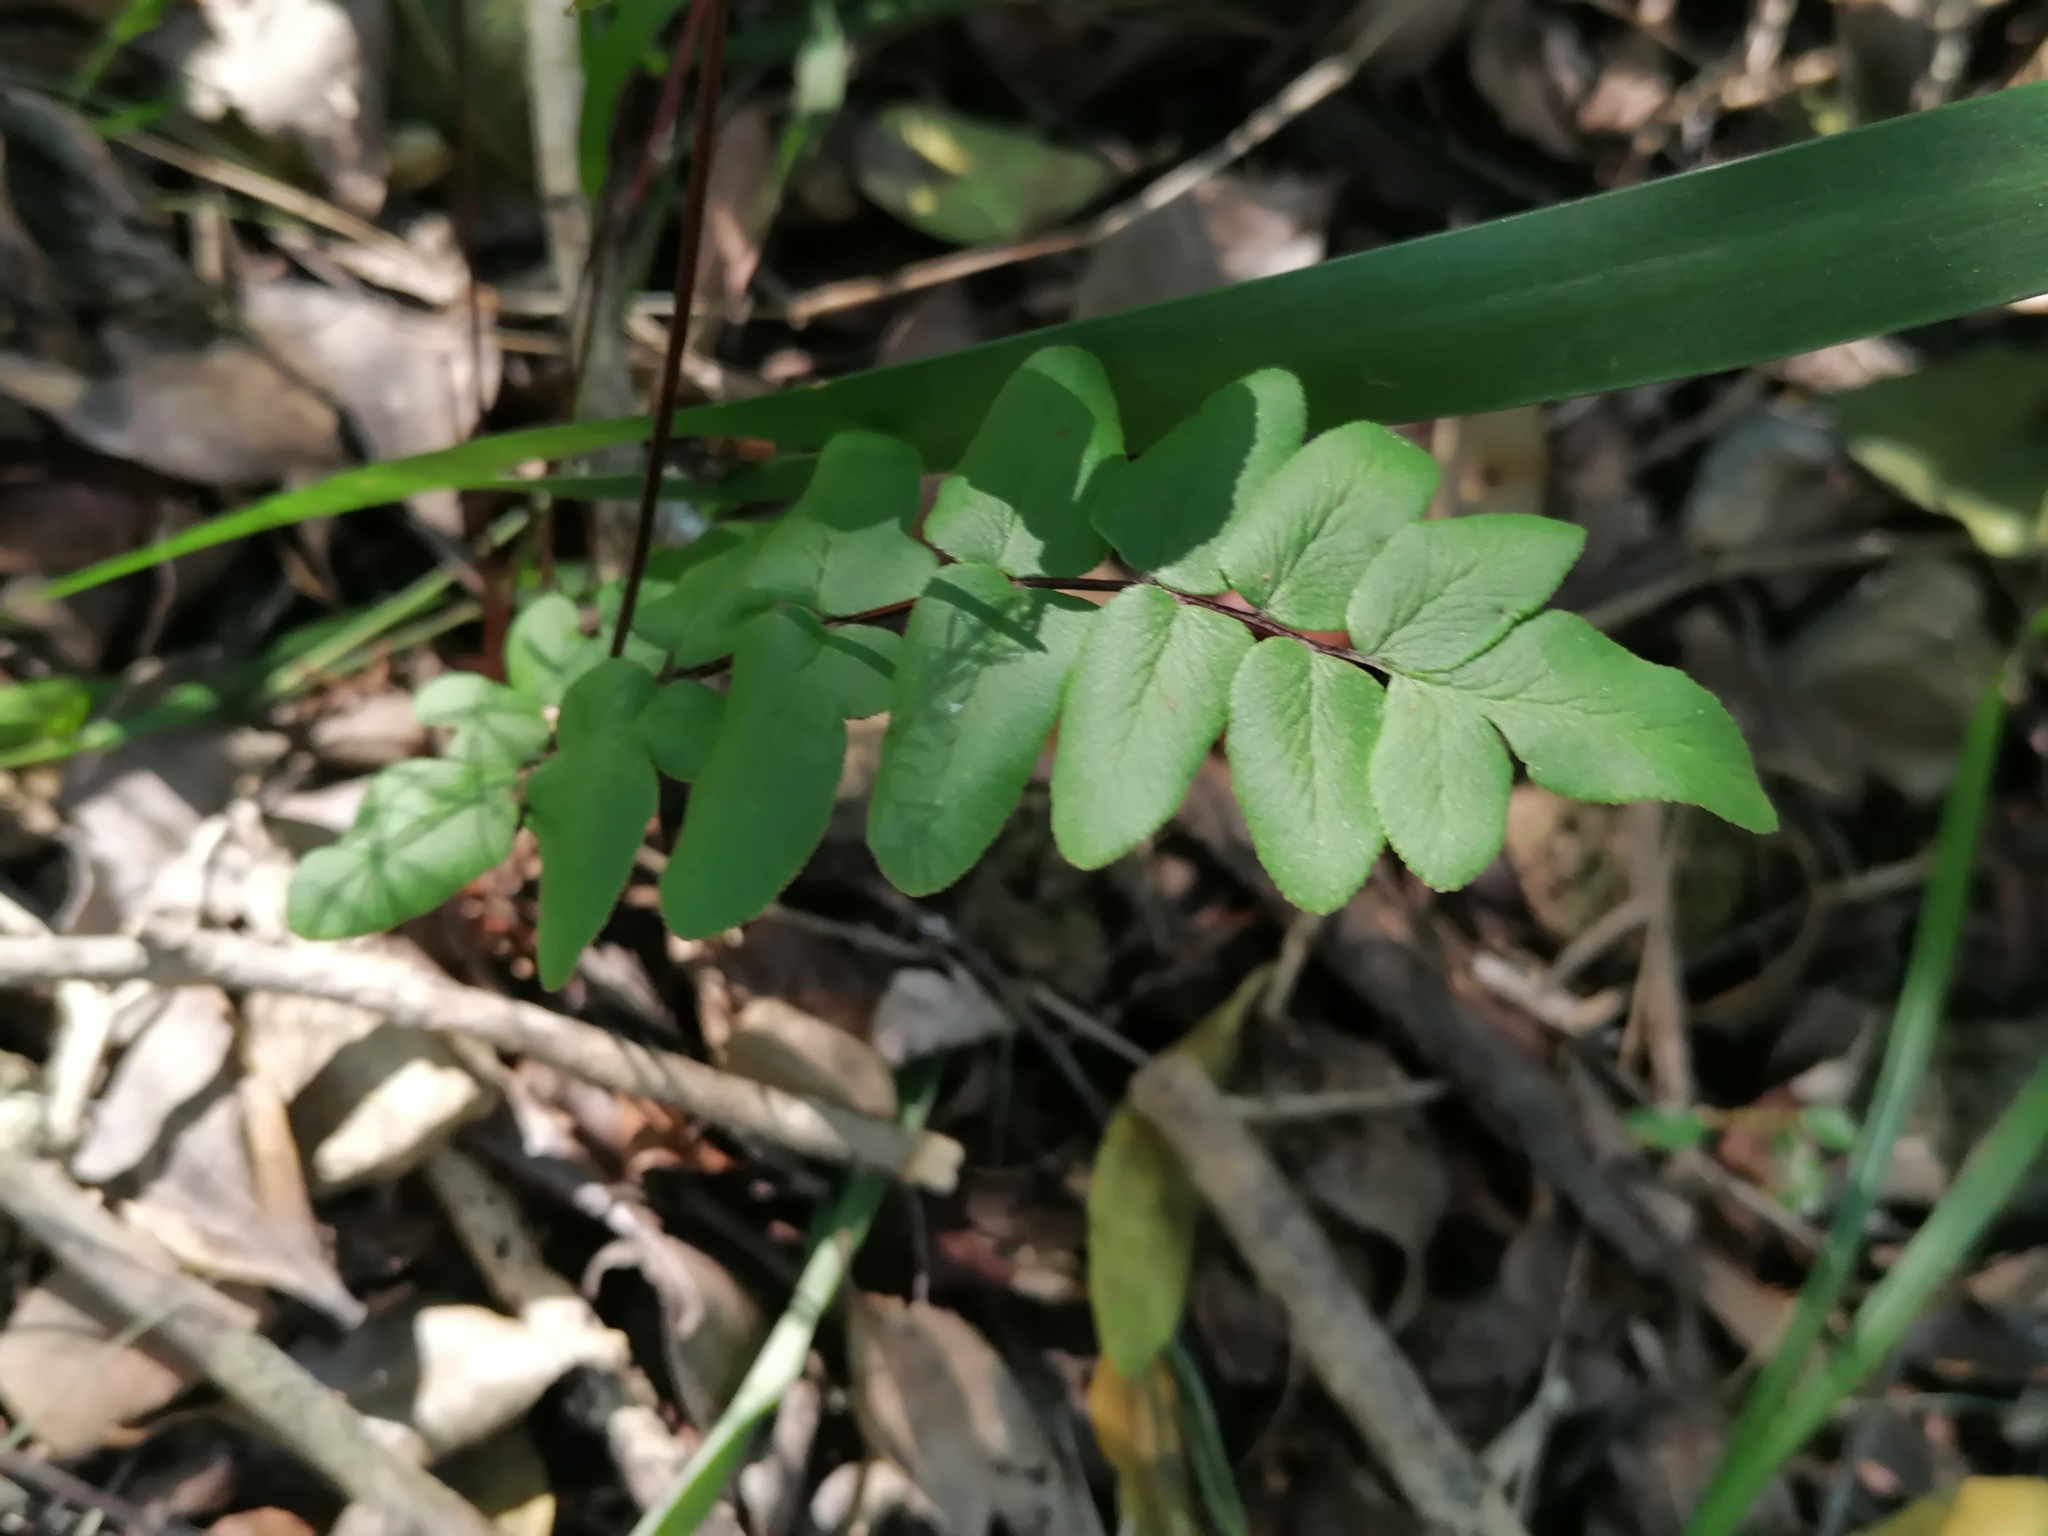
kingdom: Plantae
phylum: Tracheophyta
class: Polypodiopsida
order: Polypodiales
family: Pteridaceae
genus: Cheilanthes
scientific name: Cheilanthes viridis
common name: Green cliffbrake
